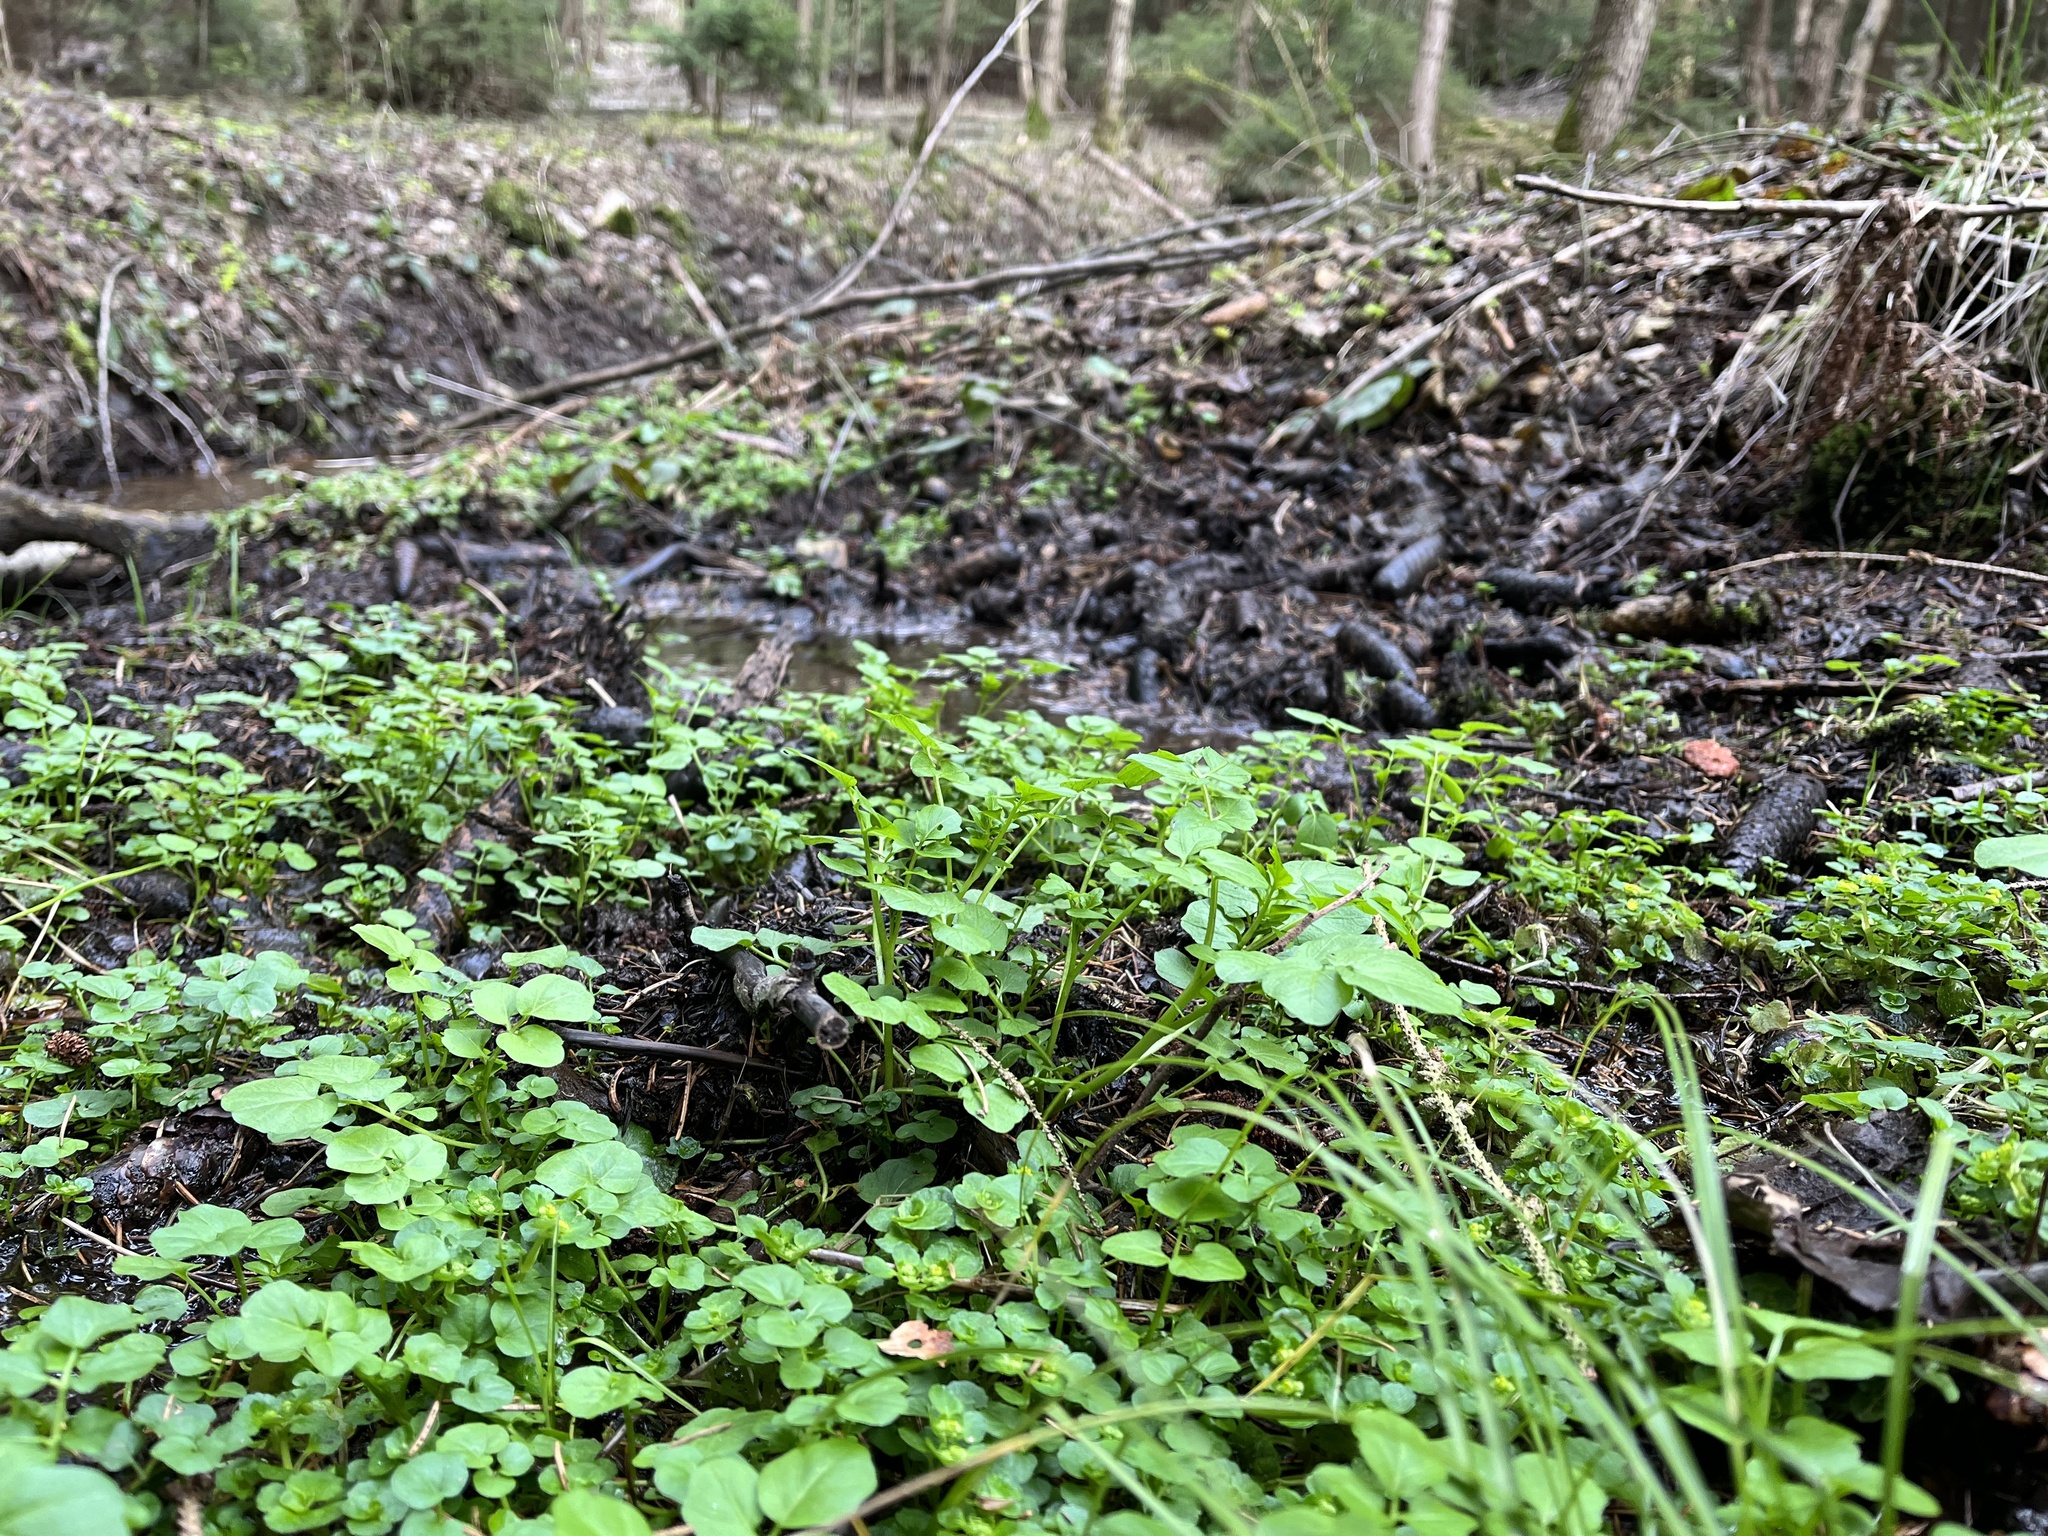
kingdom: Plantae
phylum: Tracheophyta
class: Magnoliopsida
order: Brassicales
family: Brassicaceae
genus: Cardamine
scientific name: Cardamine amara
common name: Large bitter-cress
